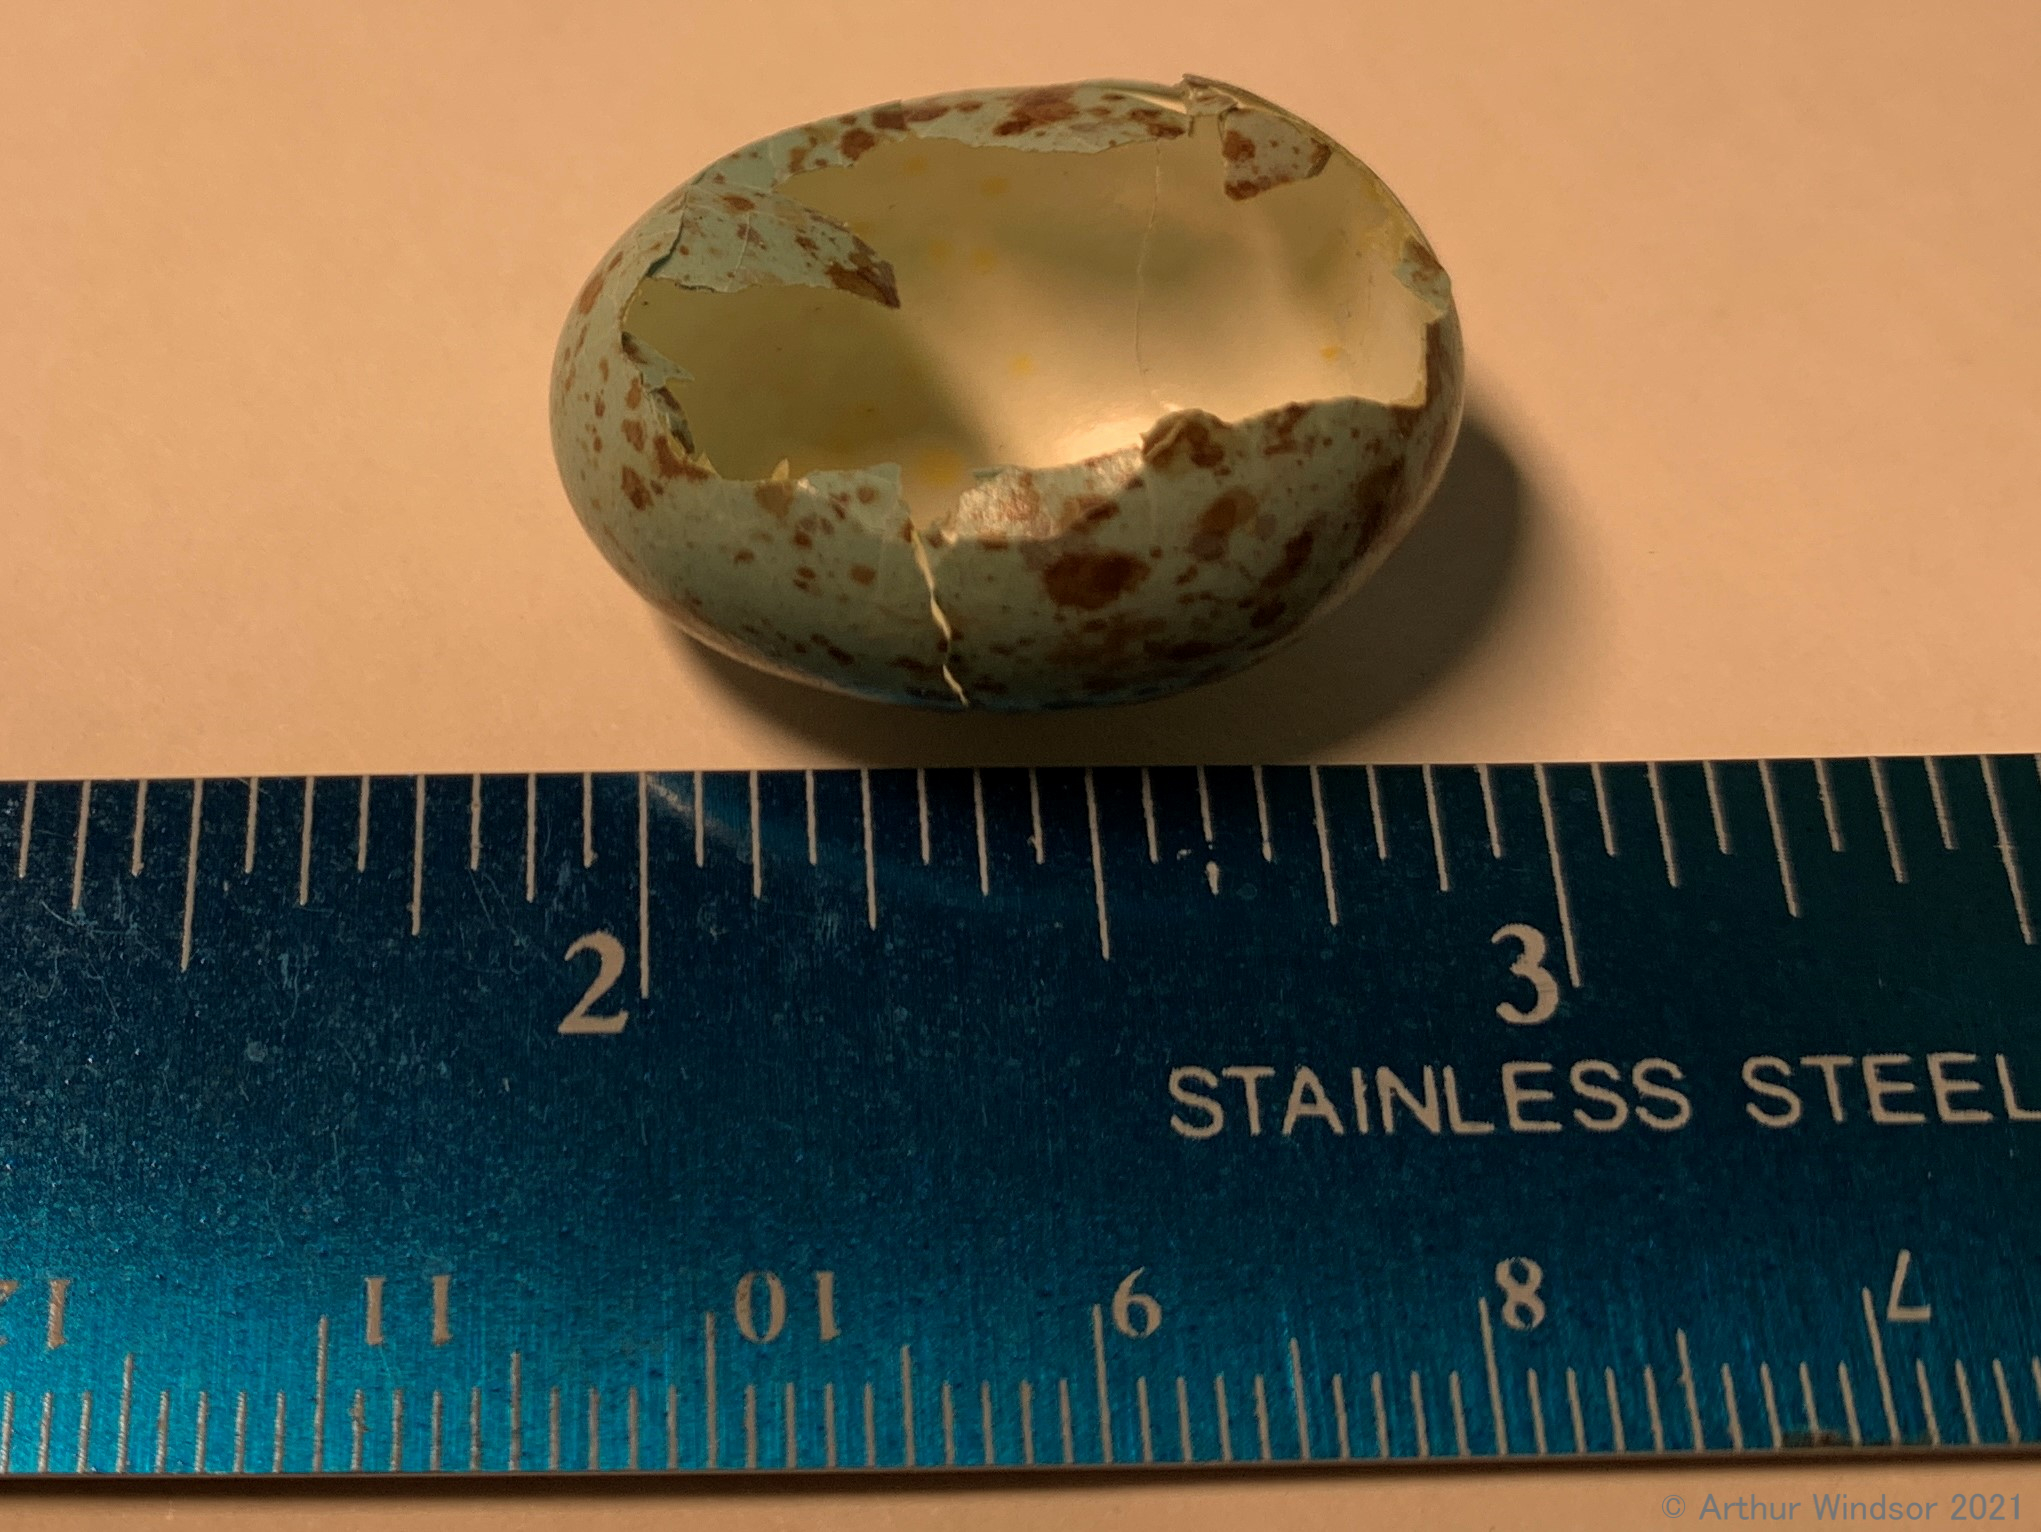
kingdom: Animalia
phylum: Chordata
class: Aves
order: Passeriformes
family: Mimidae
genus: Mimus
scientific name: Mimus polyglottos
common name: Northern mockingbird
